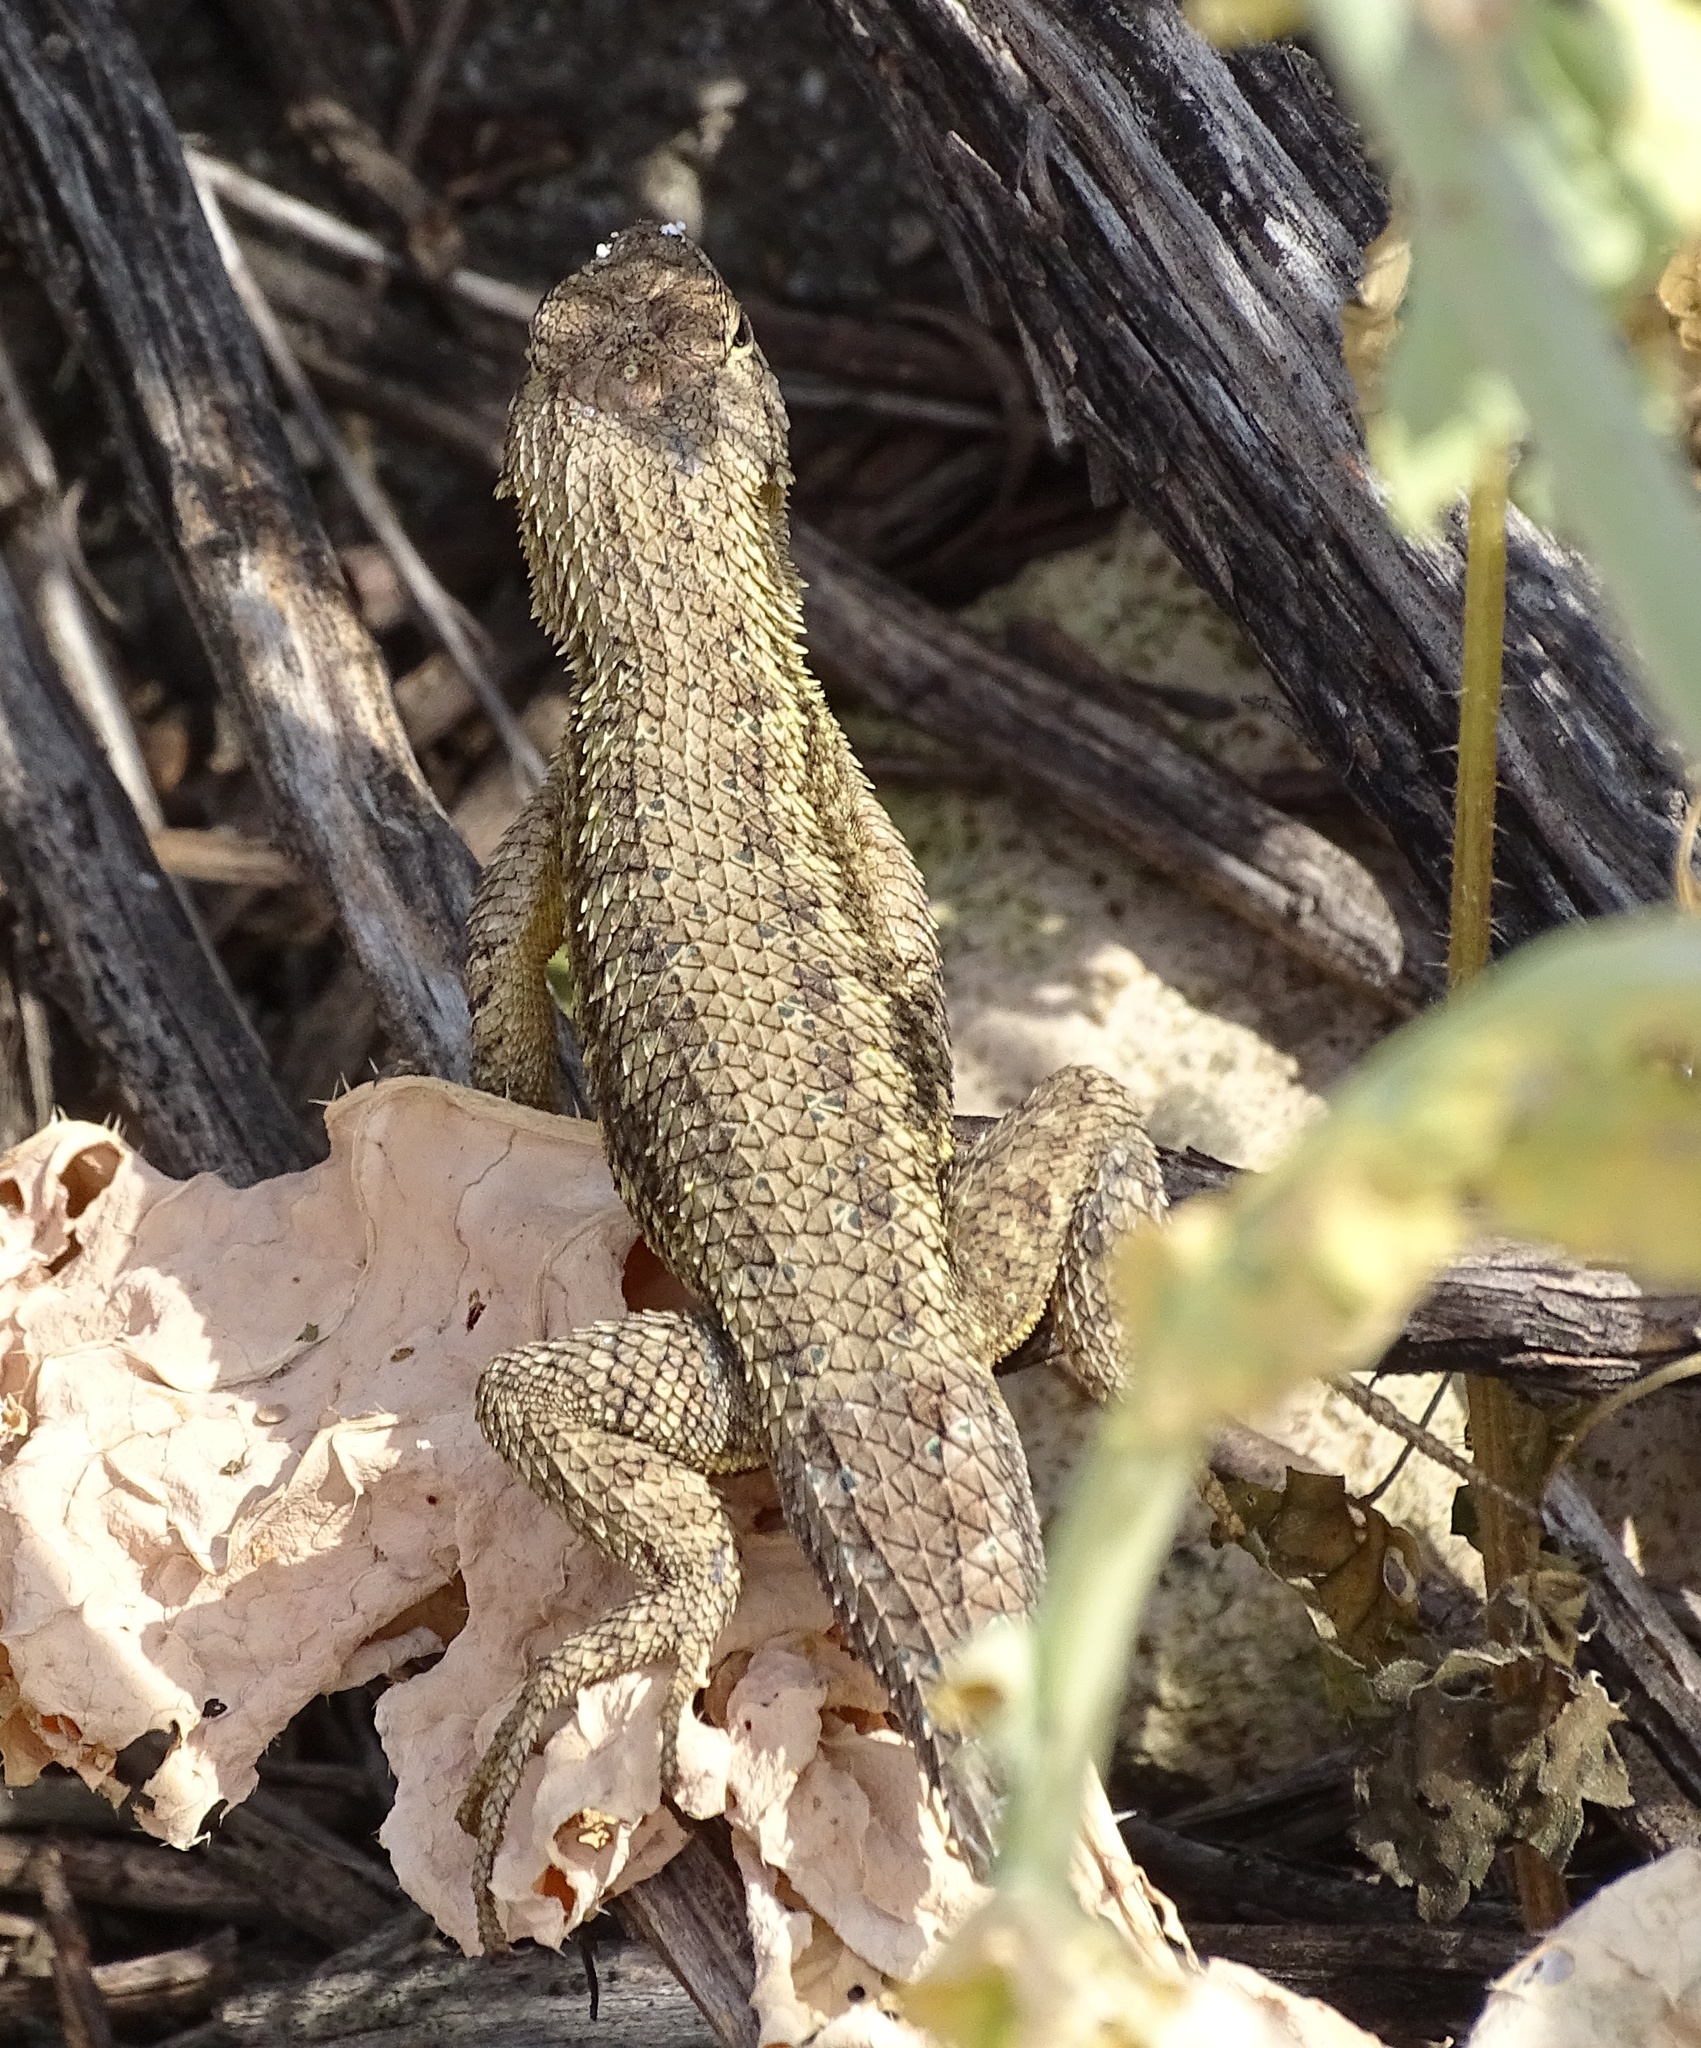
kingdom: Animalia
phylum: Chordata
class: Squamata
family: Phrynosomatidae
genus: Sceloporus
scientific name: Sceloporus occidentalis
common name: Western fence lizard
